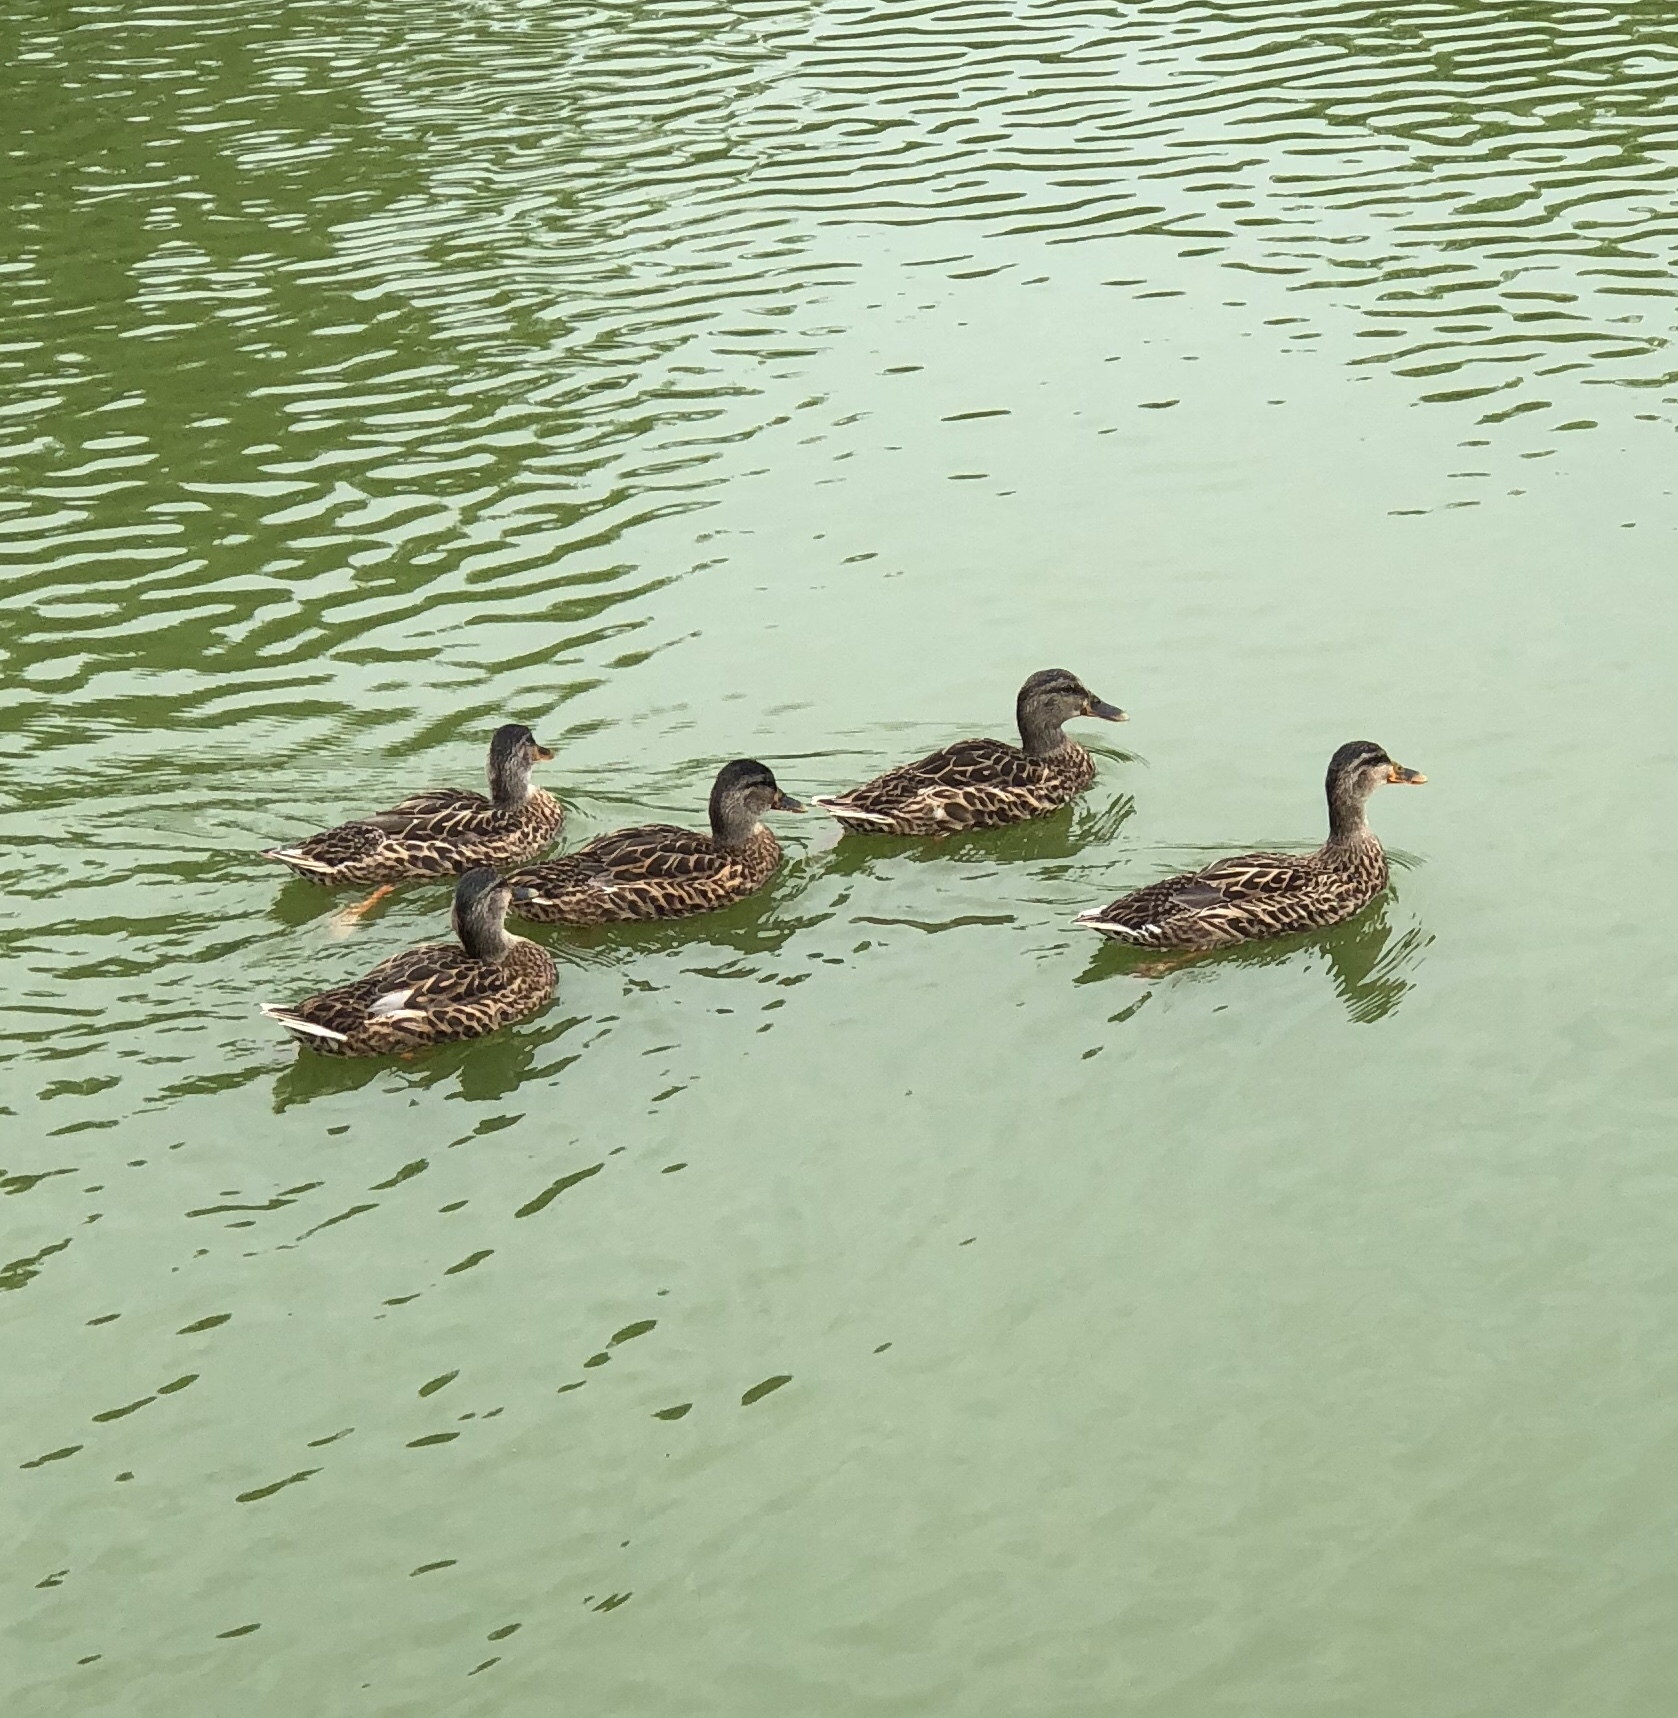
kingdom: Animalia
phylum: Chordata
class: Aves
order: Anseriformes
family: Anatidae
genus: Anas
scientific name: Anas platyrhynchos
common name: Mallard
